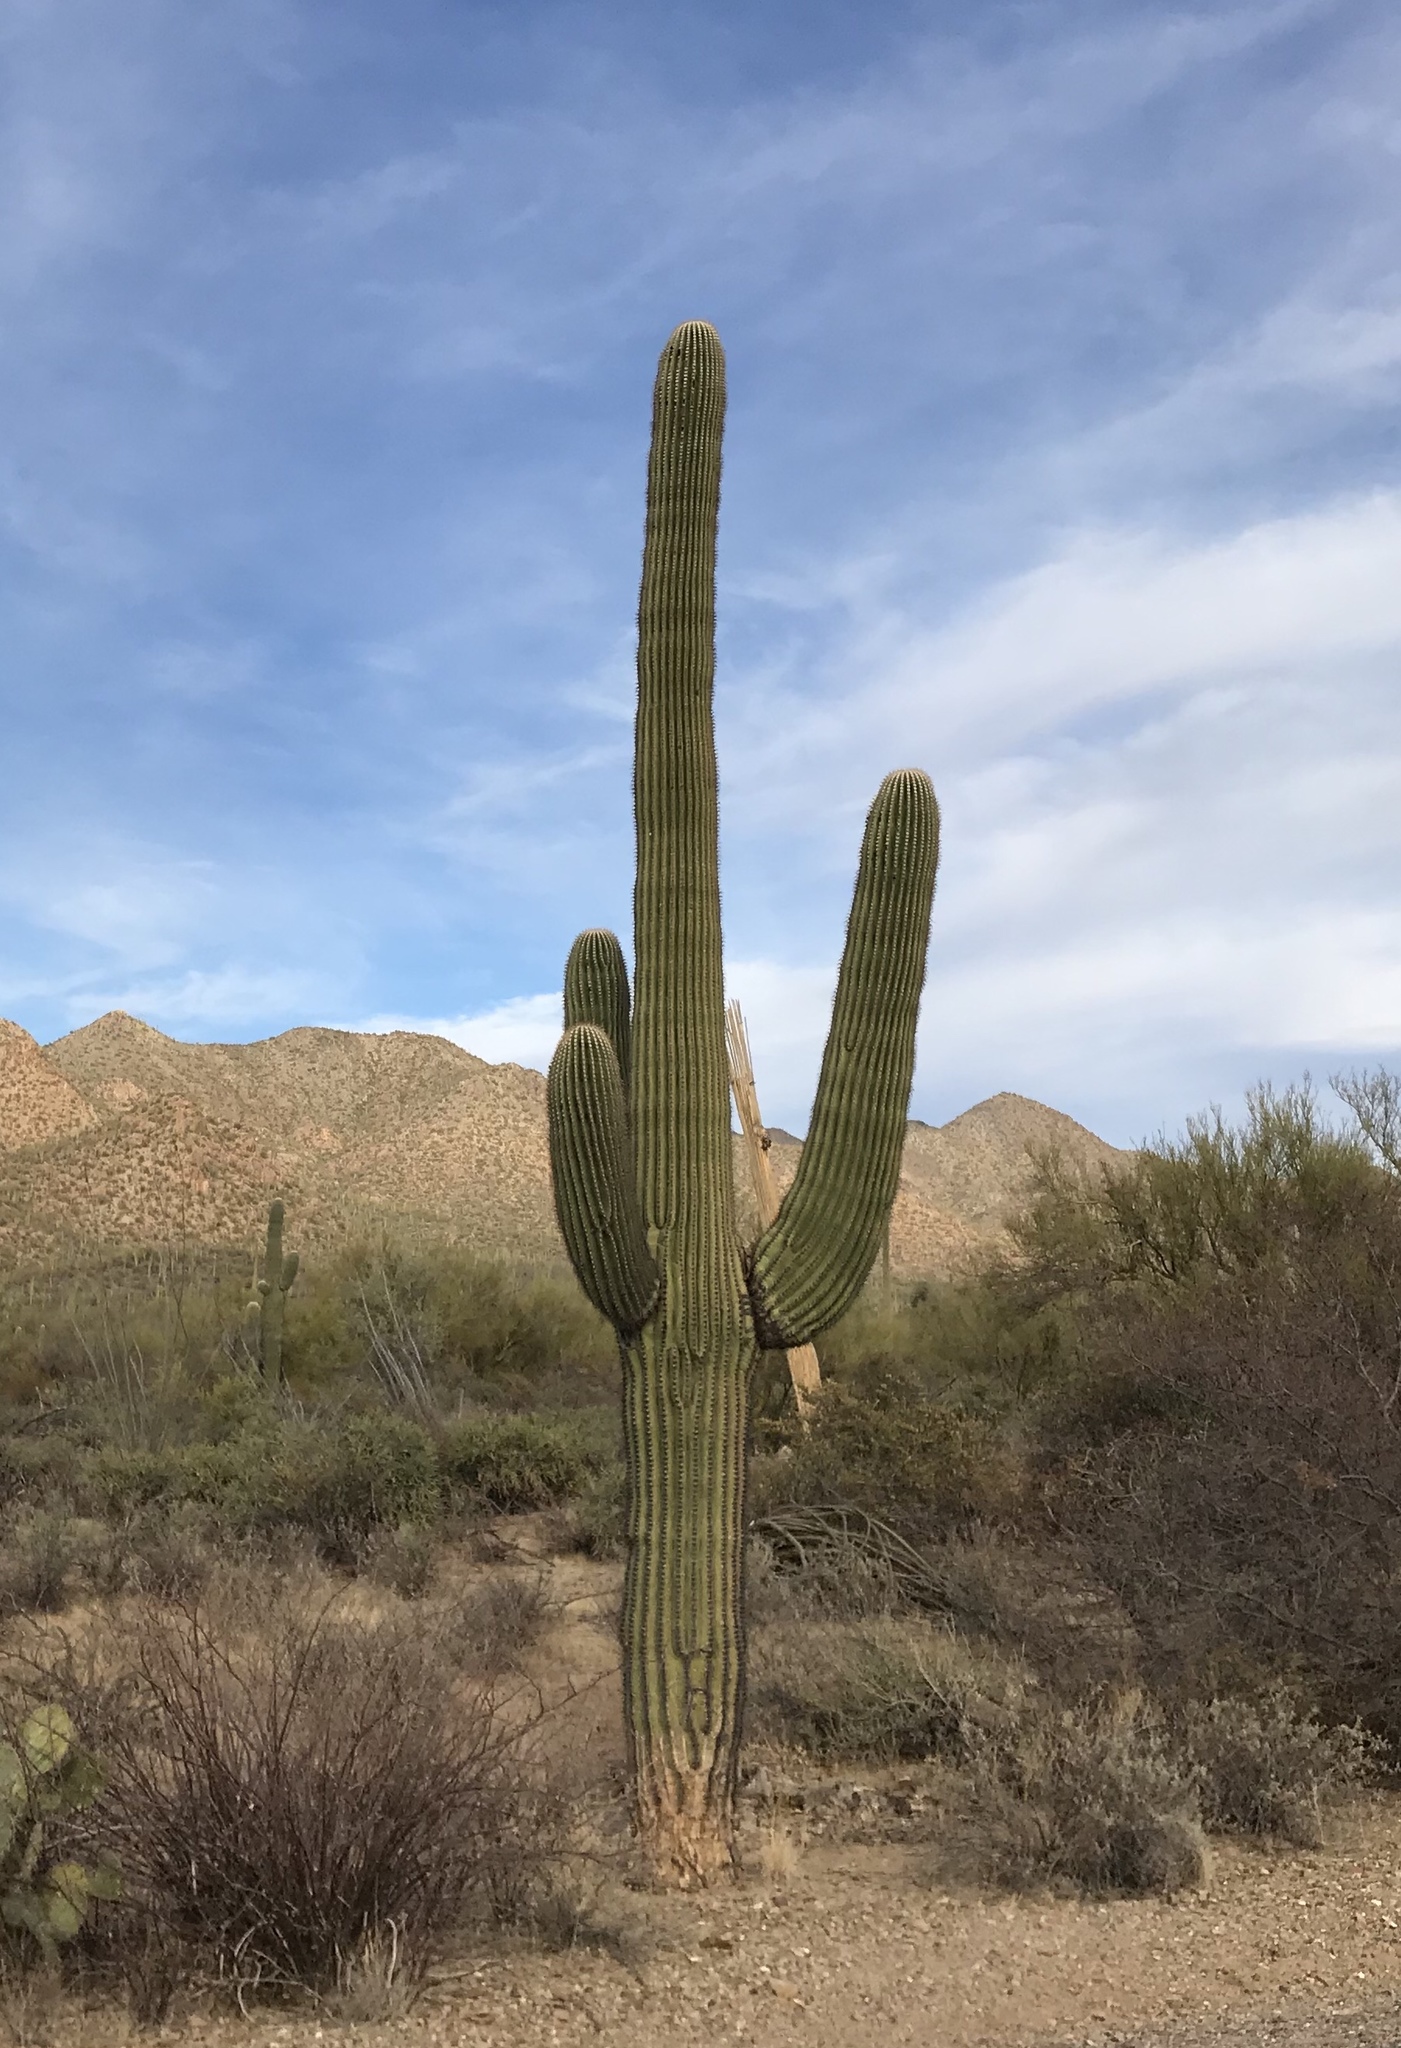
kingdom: Plantae
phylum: Tracheophyta
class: Magnoliopsida
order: Caryophyllales
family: Cactaceae
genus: Carnegiea
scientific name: Carnegiea gigantea
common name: Saguaro
